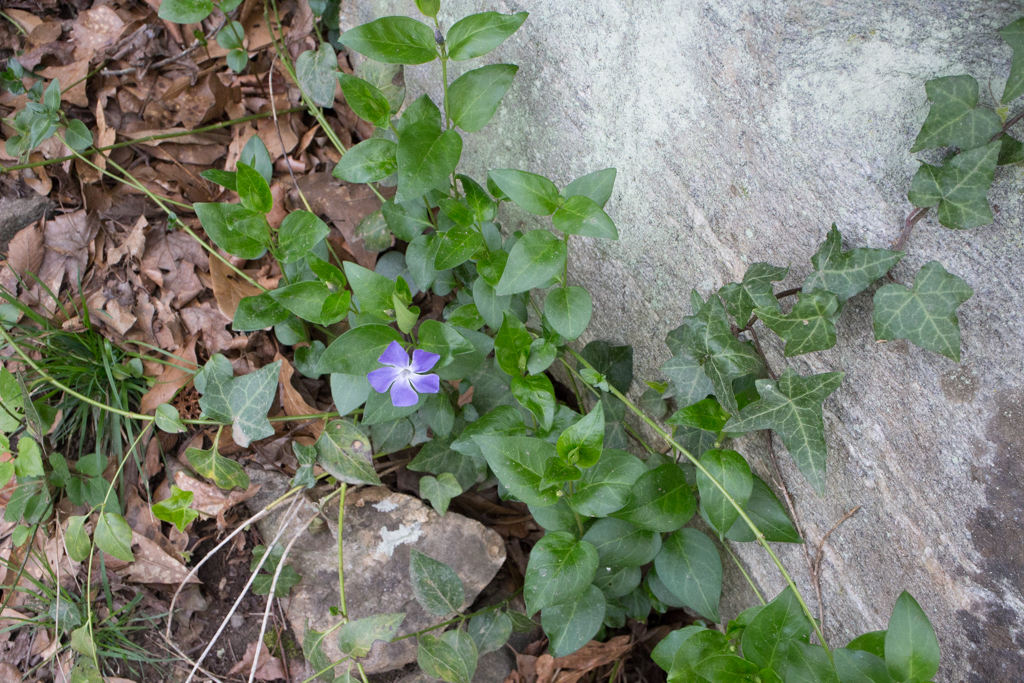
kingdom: Plantae
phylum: Tracheophyta
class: Magnoliopsida
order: Gentianales
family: Apocynaceae
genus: Vinca
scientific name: Vinca major
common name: Greater periwinkle
